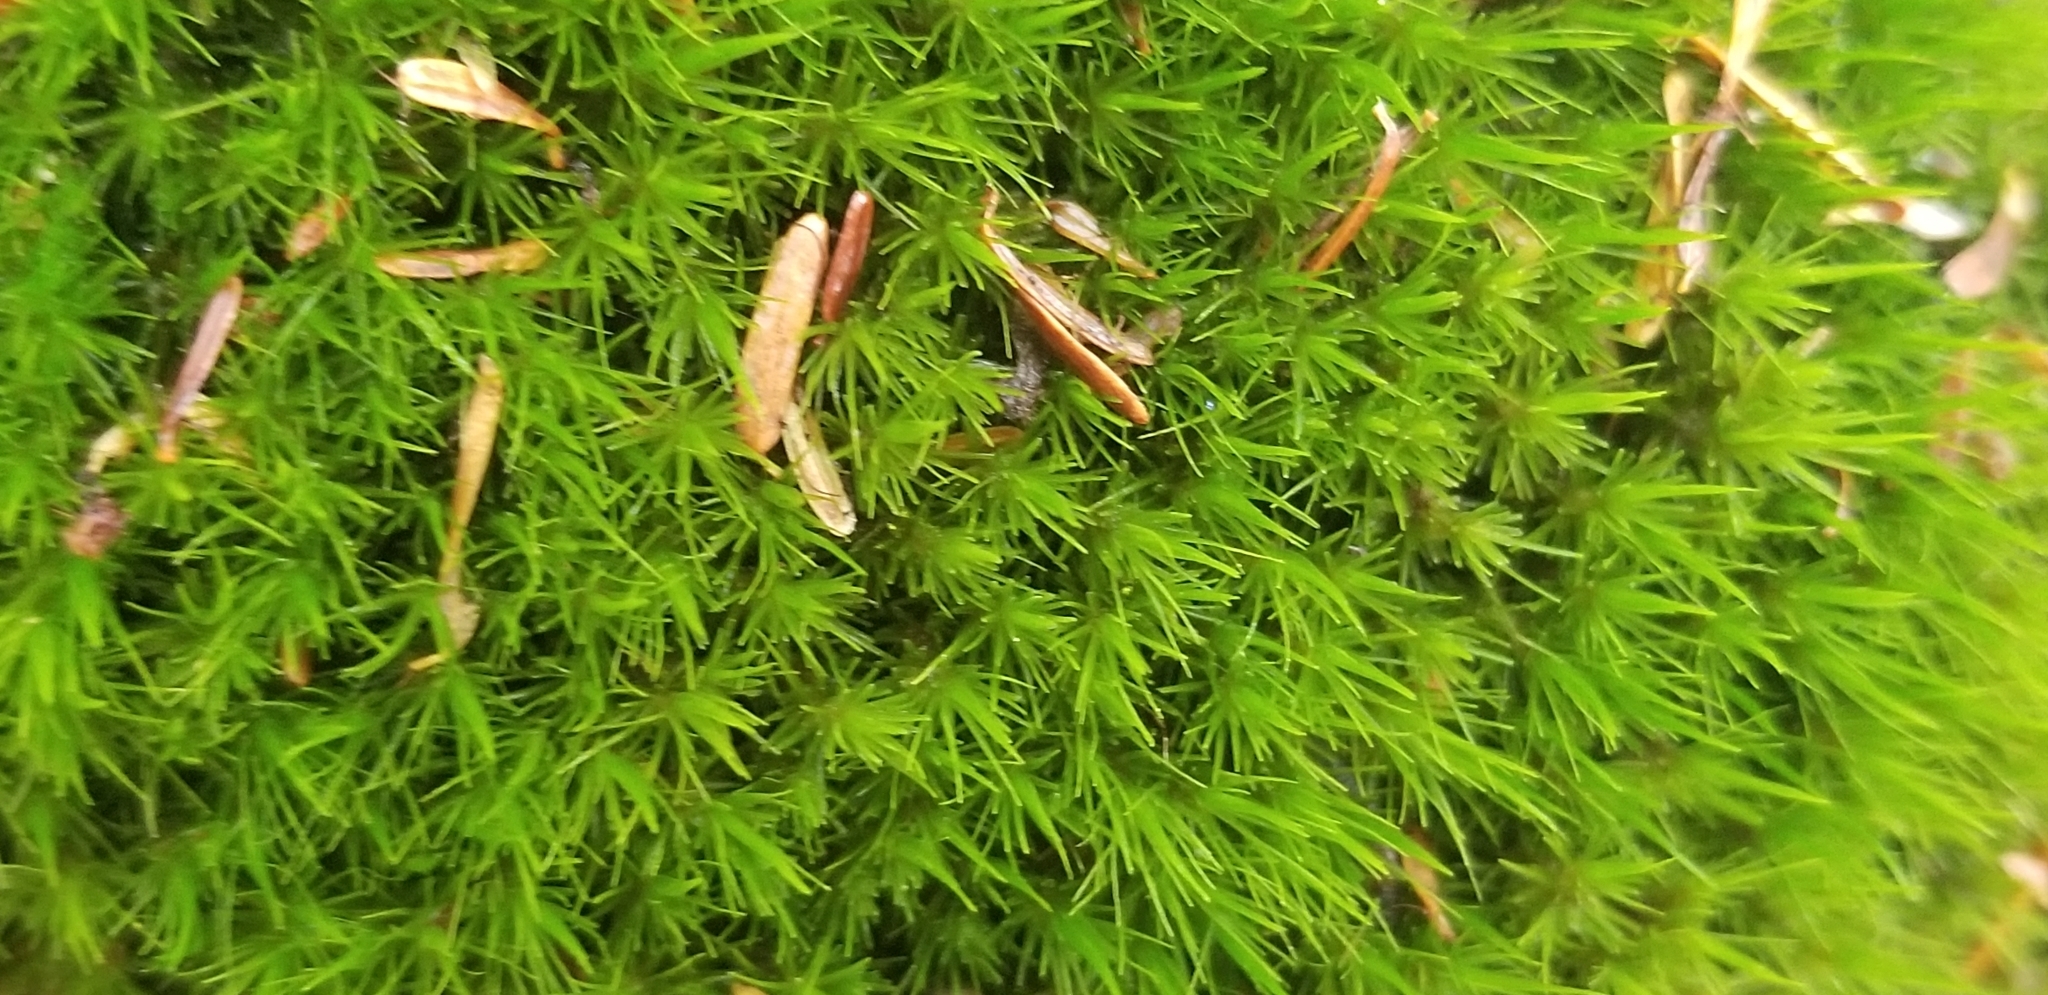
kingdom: Plantae
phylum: Bryophyta
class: Bryopsida
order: Dicranales
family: Dicranaceae
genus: Dicranum
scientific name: Dicranum viride
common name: Green broom moss
